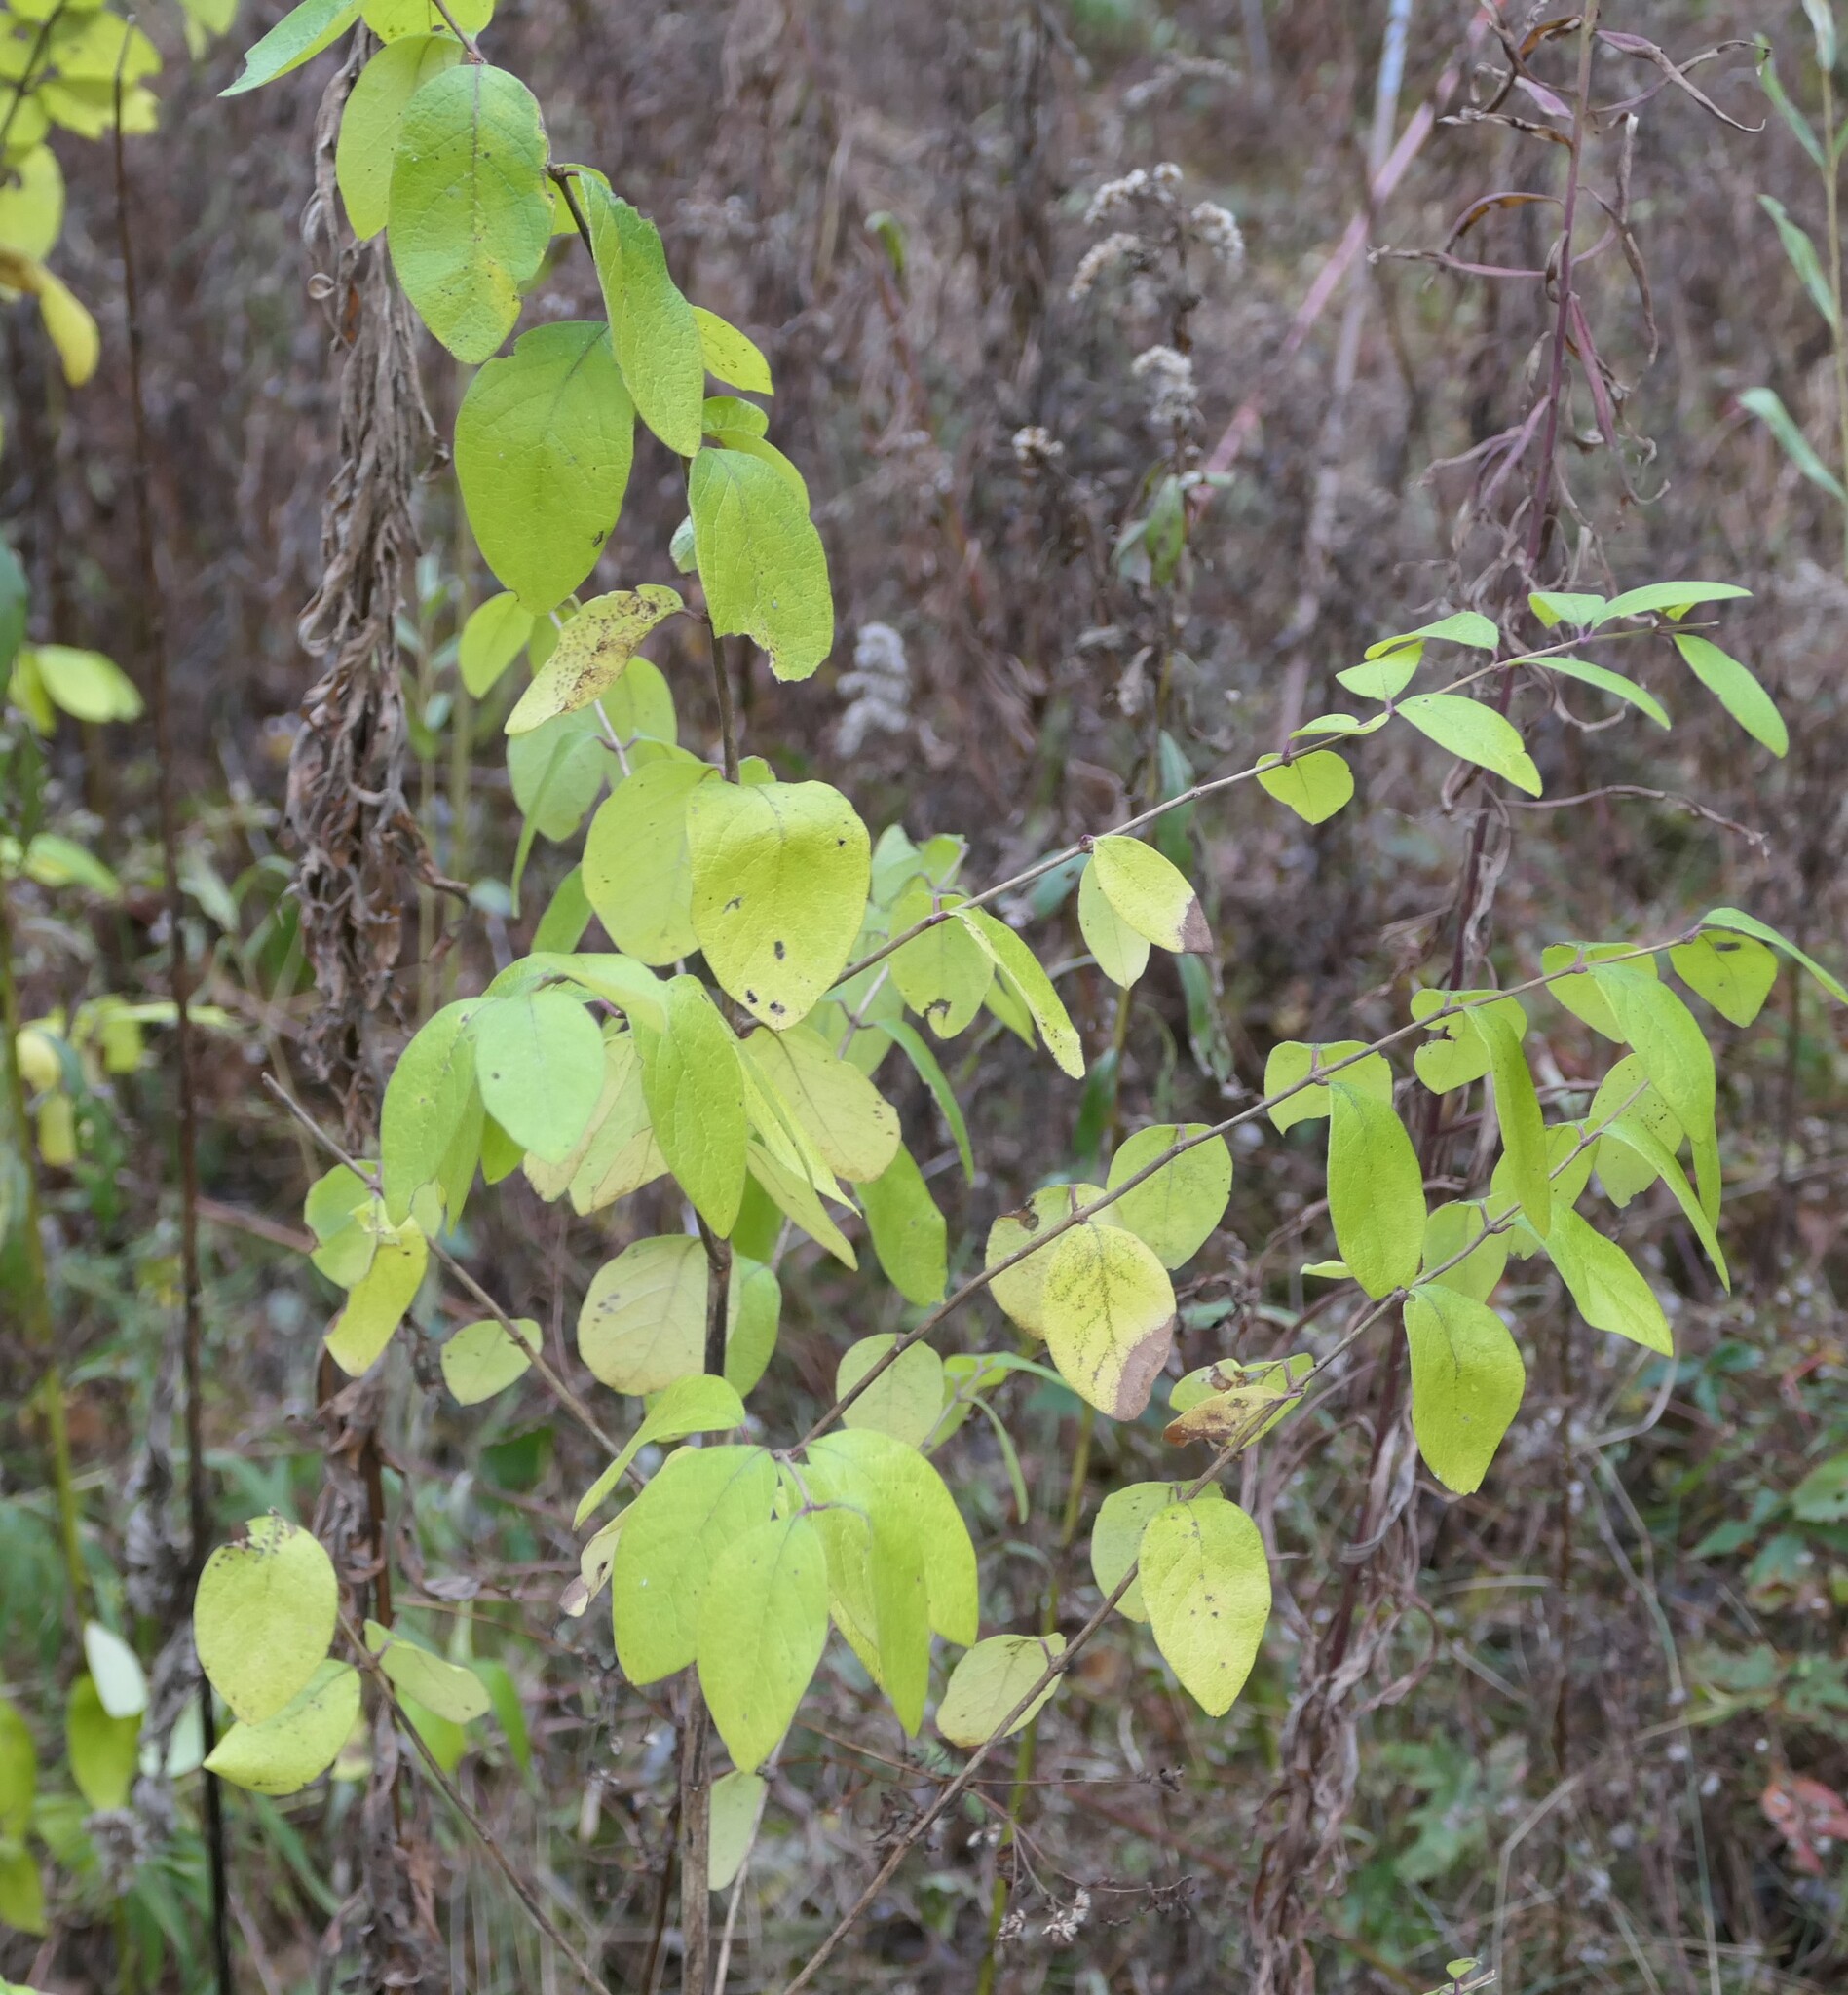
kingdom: Plantae
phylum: Tracheophyta
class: Magnoliopsida
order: Dipsacales
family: Caprifoliaceae
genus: Lonicera
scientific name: Lonicera morrowii
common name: Morrow's honeysuckle
